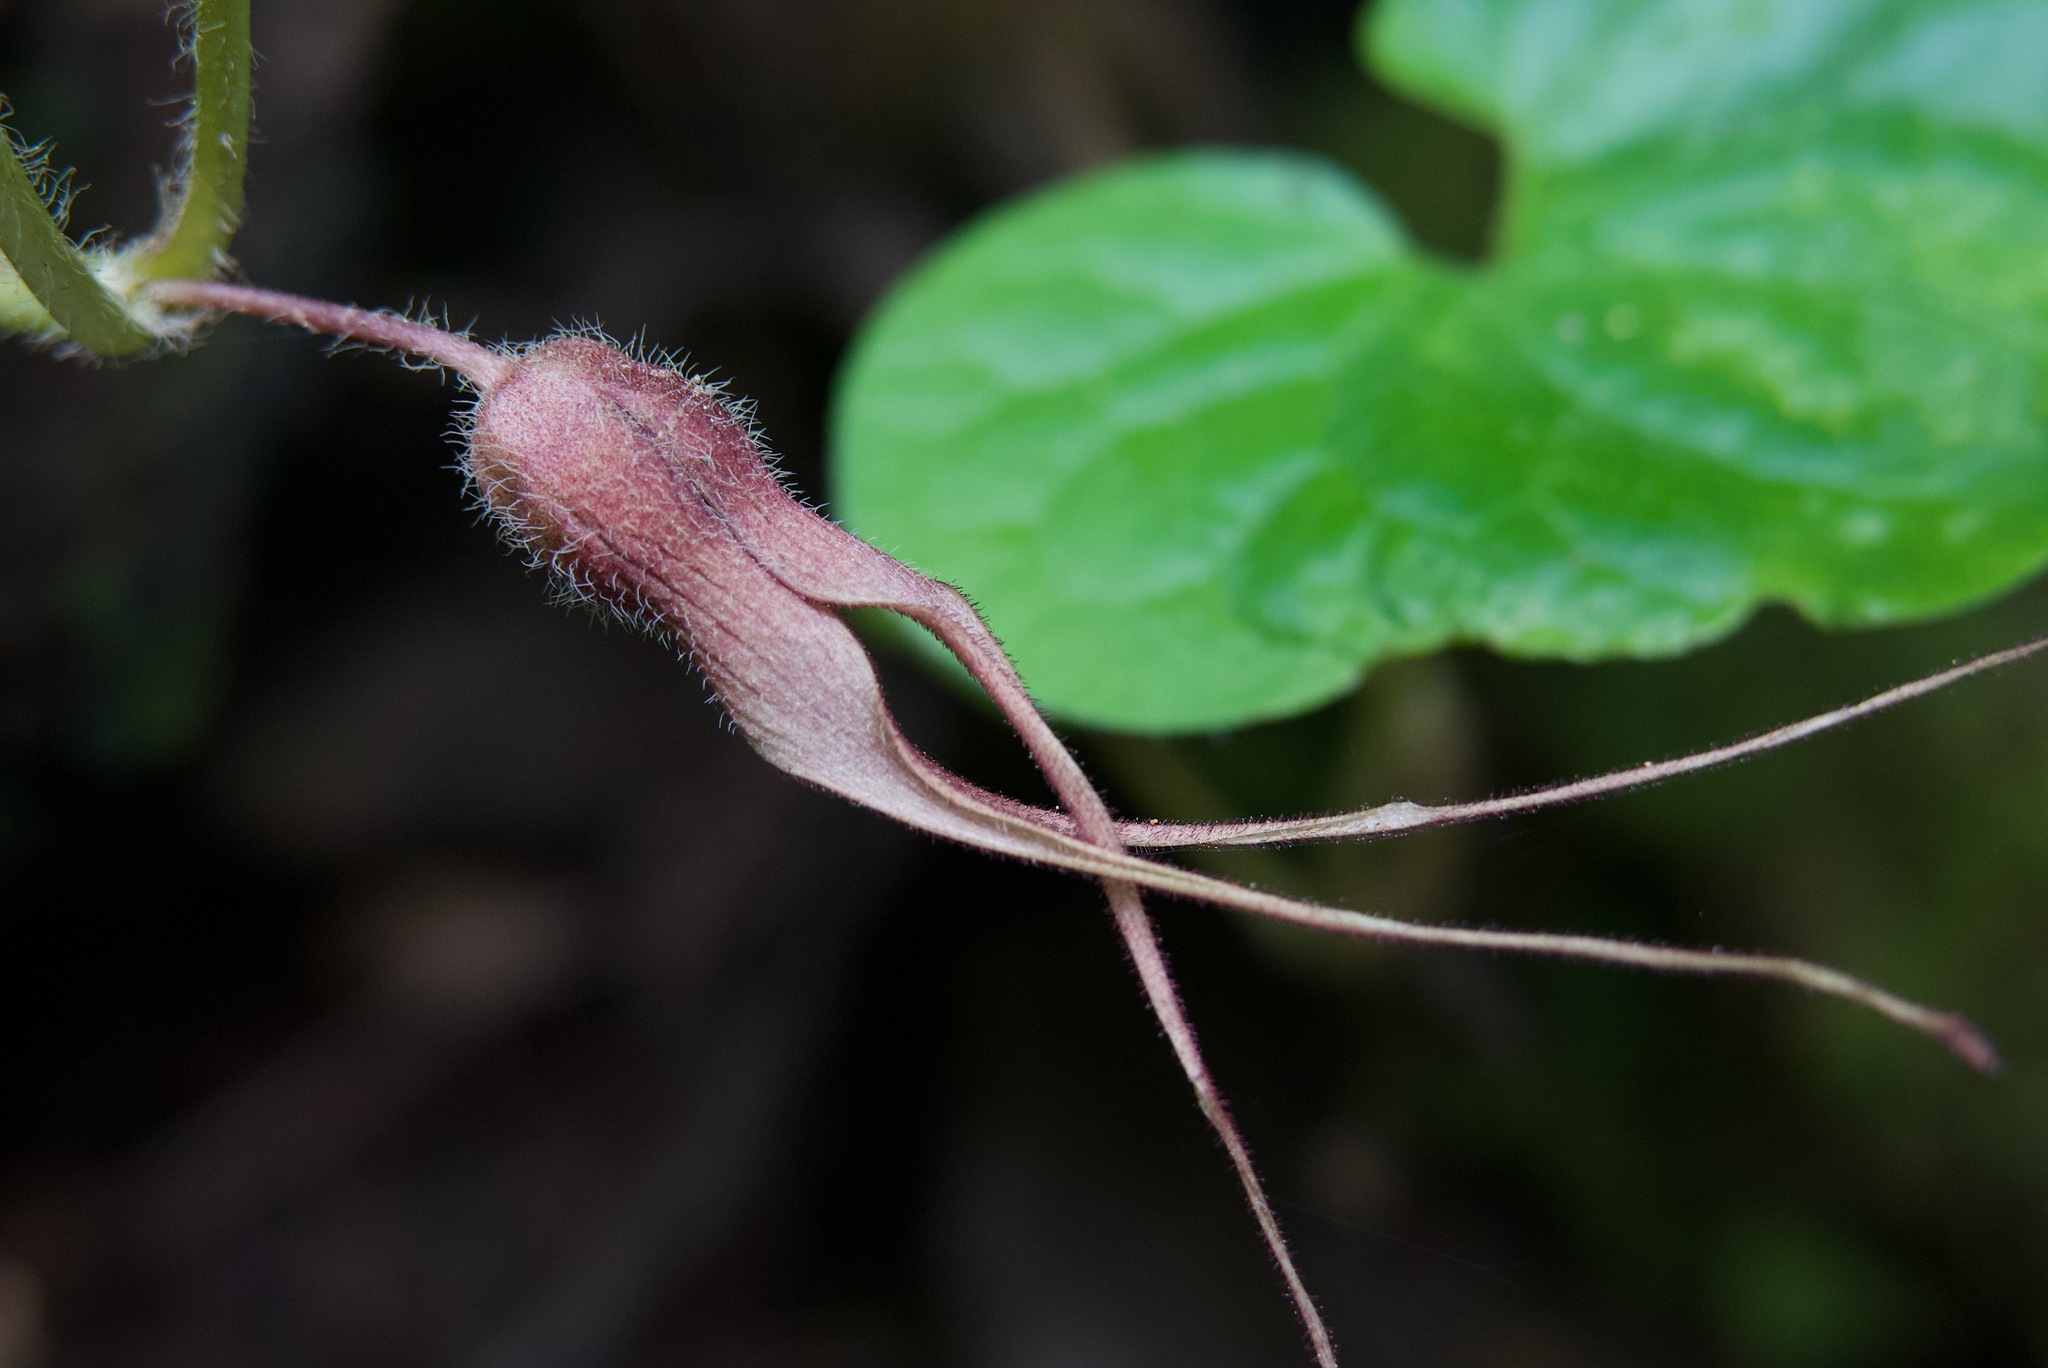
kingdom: Plantae
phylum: Tracheophyta
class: Magnoliopsida
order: Piperales
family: Aristolochiaceae
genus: Asarum
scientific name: Asarum caudatum
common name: Wild ginger
